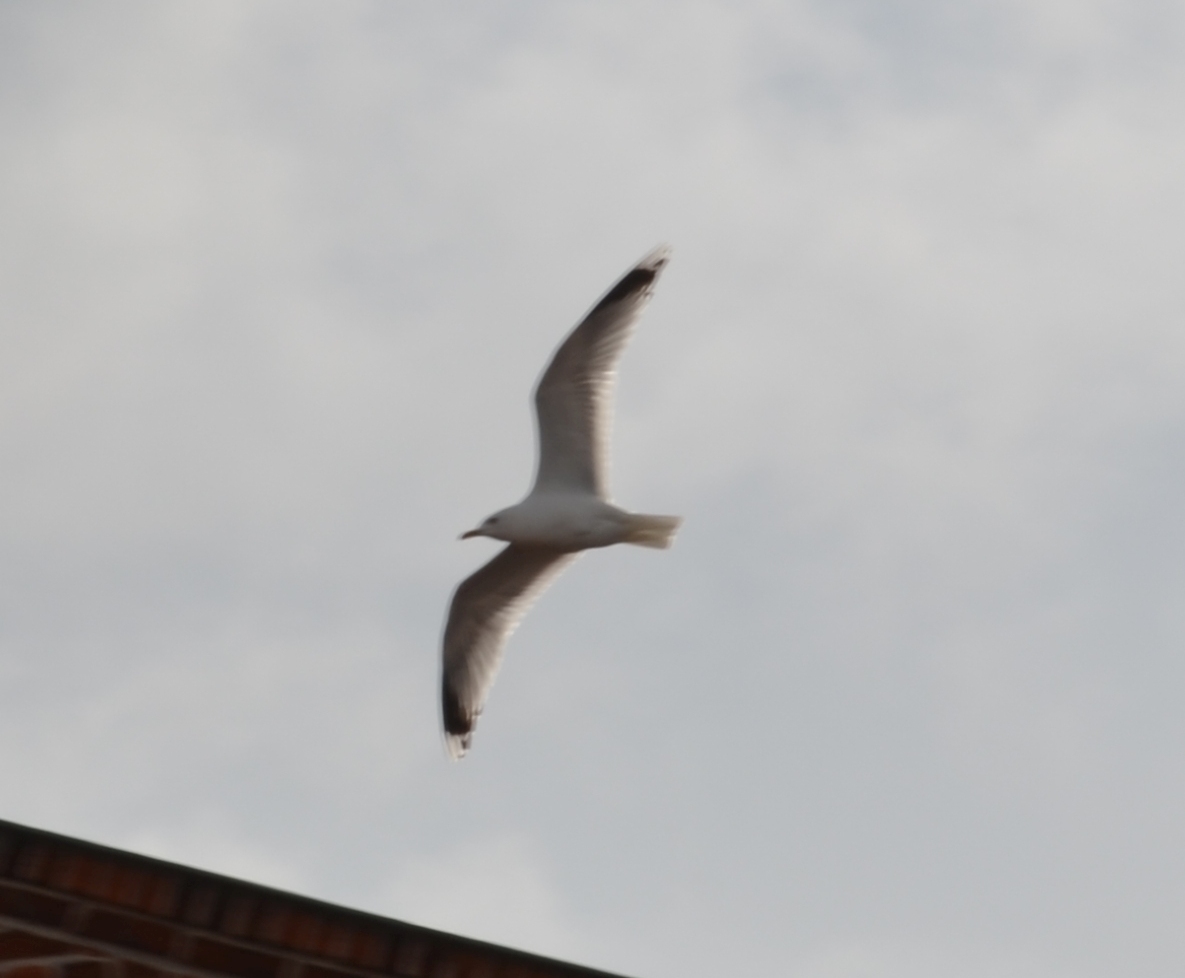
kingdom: Animalia
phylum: Chordata
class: Aves
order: Charadriiformes
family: Laridae
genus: Larus
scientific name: Larus canus
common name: Mew gull
